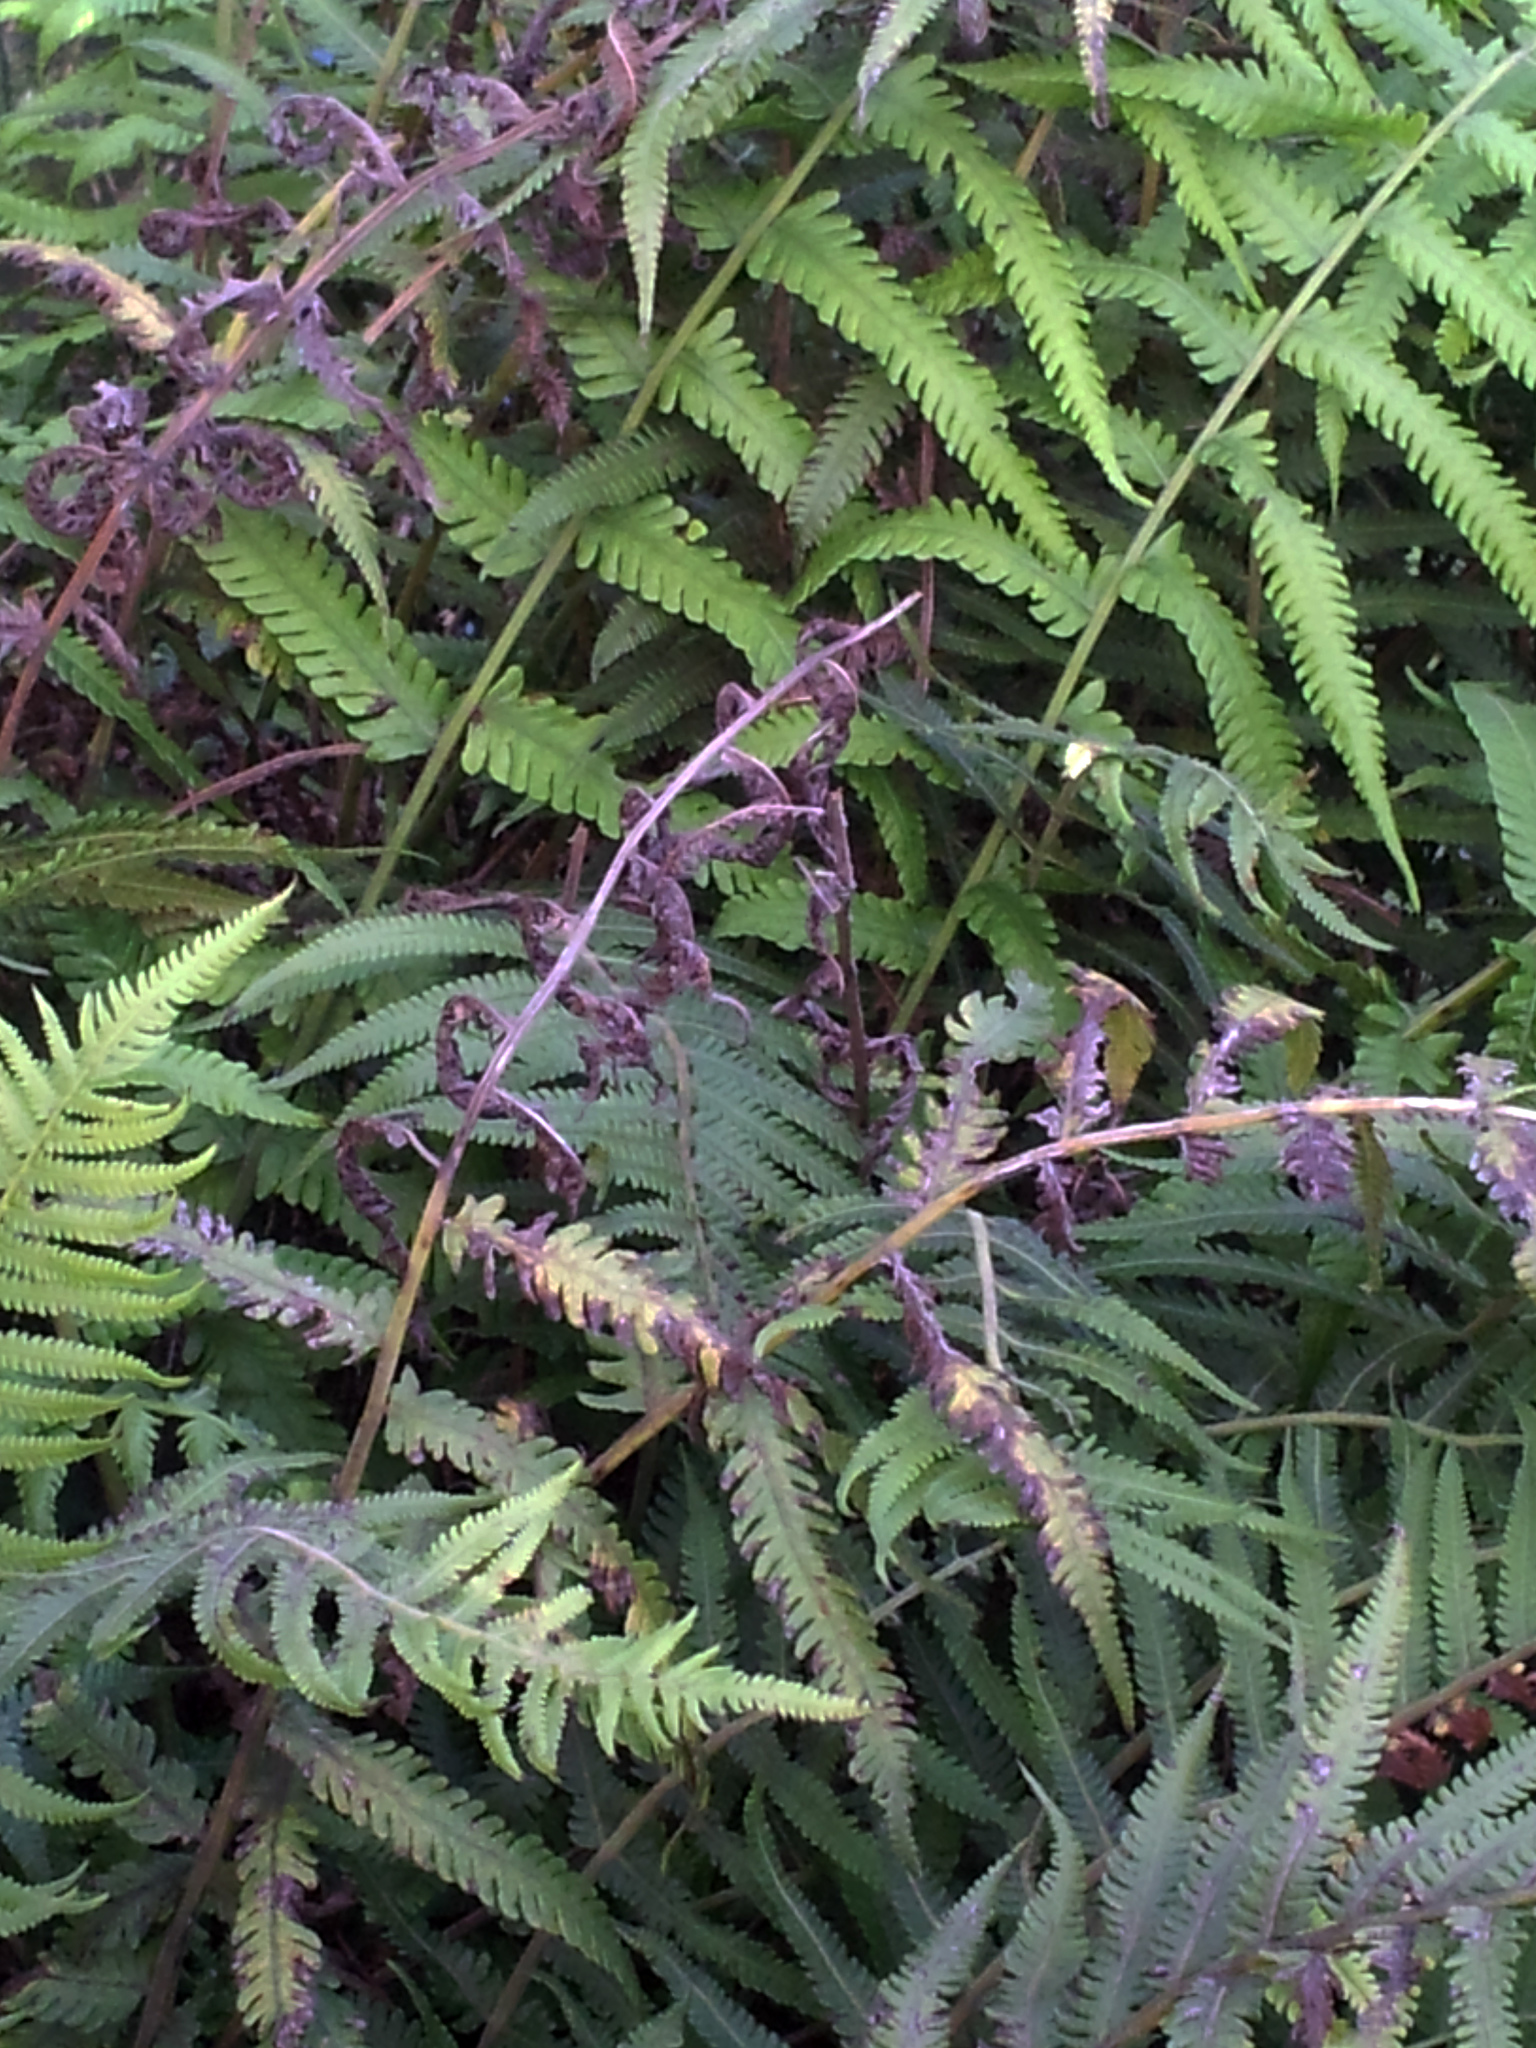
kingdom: Plantae
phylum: Tracheophyta
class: Polypodiopsida
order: Polypodiales
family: Thelypteridaceae
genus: Christella
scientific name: Christella dentata
